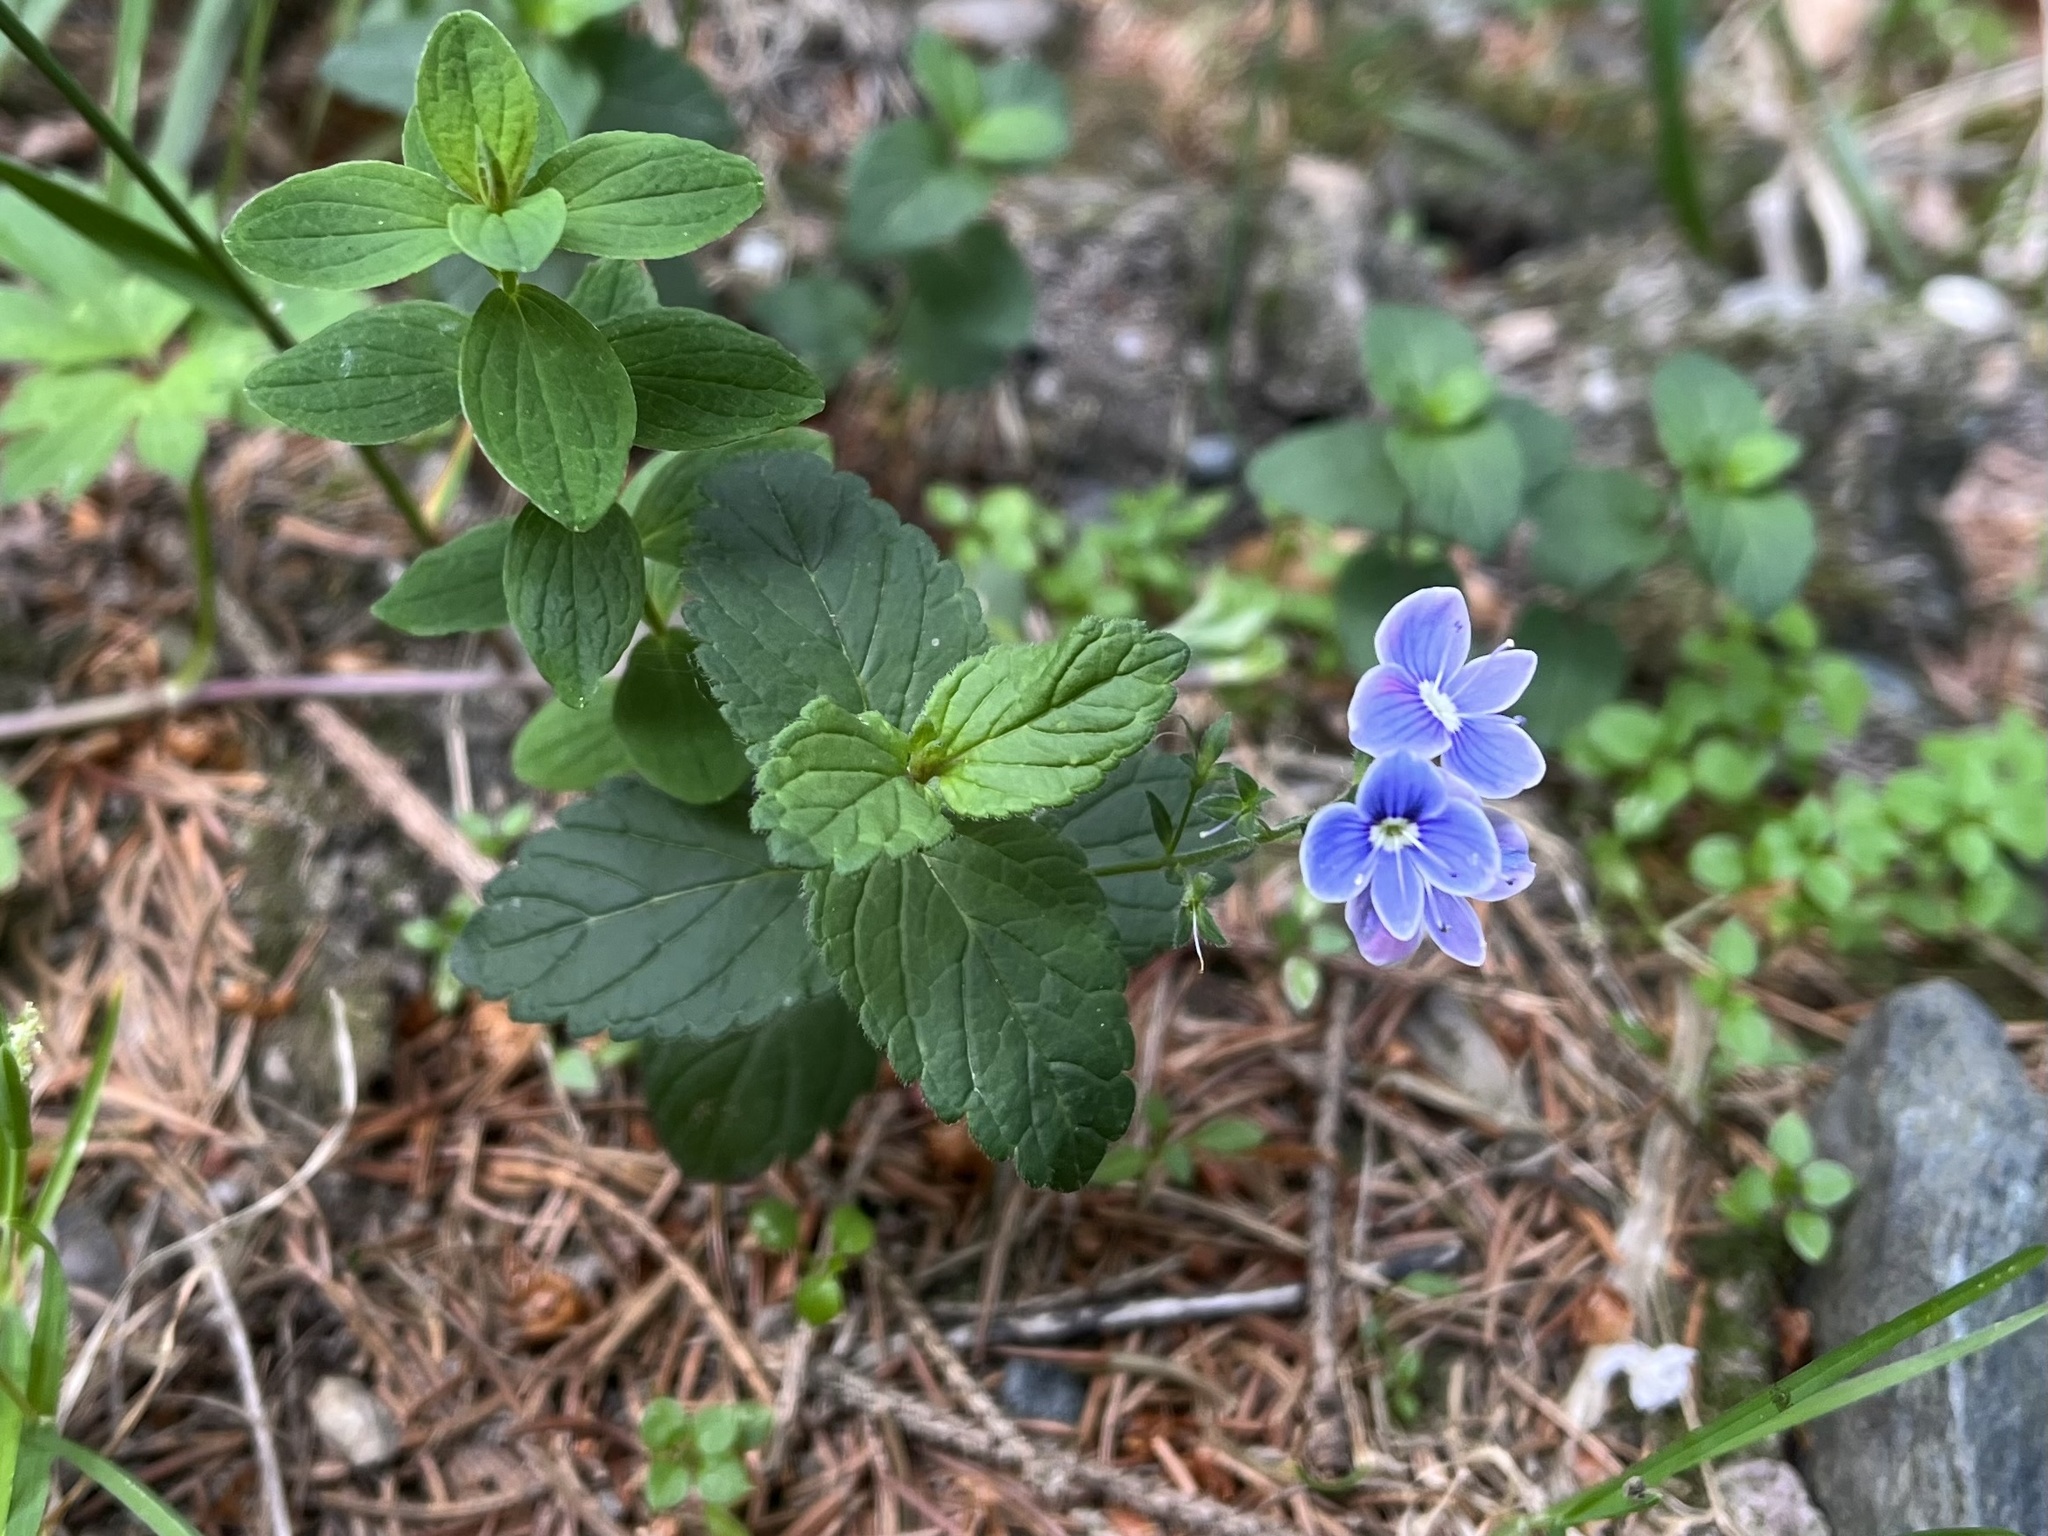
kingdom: Plantae
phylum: Tracheophyta
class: Magnoliopsida
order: Lamiales
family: Plantaginaceae
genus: Veronica
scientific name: Veronica chamaedrys
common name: Germander speedwell
